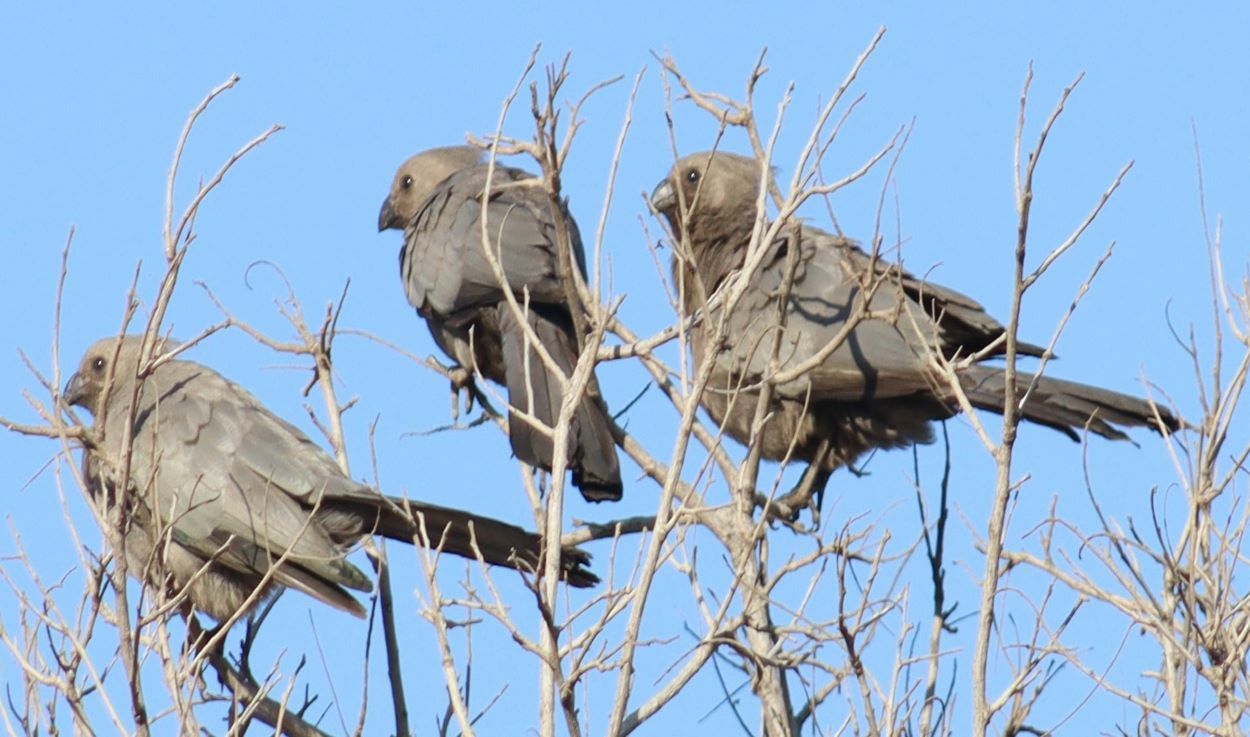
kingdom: Animalia
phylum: Chordata
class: Aves
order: Musophagiformes
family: Musophagidae
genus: Corythaixoides
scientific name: Corythaixoides concolor
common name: Grey go-away-bird
